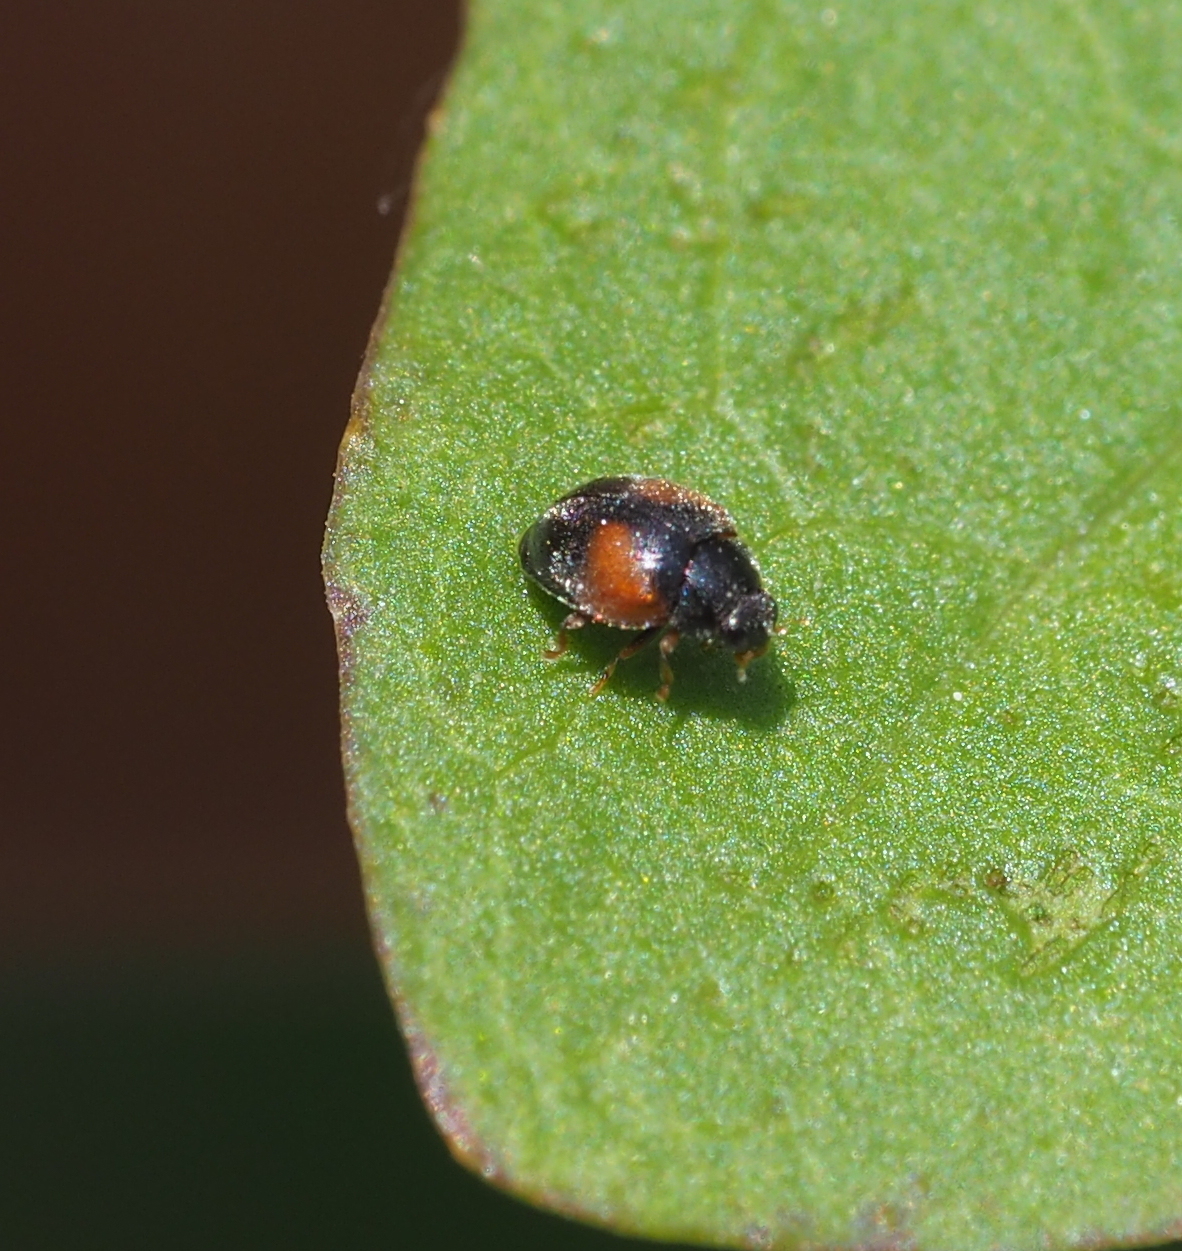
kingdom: Animalia
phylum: Arthropoda
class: Insecta
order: Coleoptera
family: Coccinellidae
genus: Scymnus
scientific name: Scymnus interruptus
